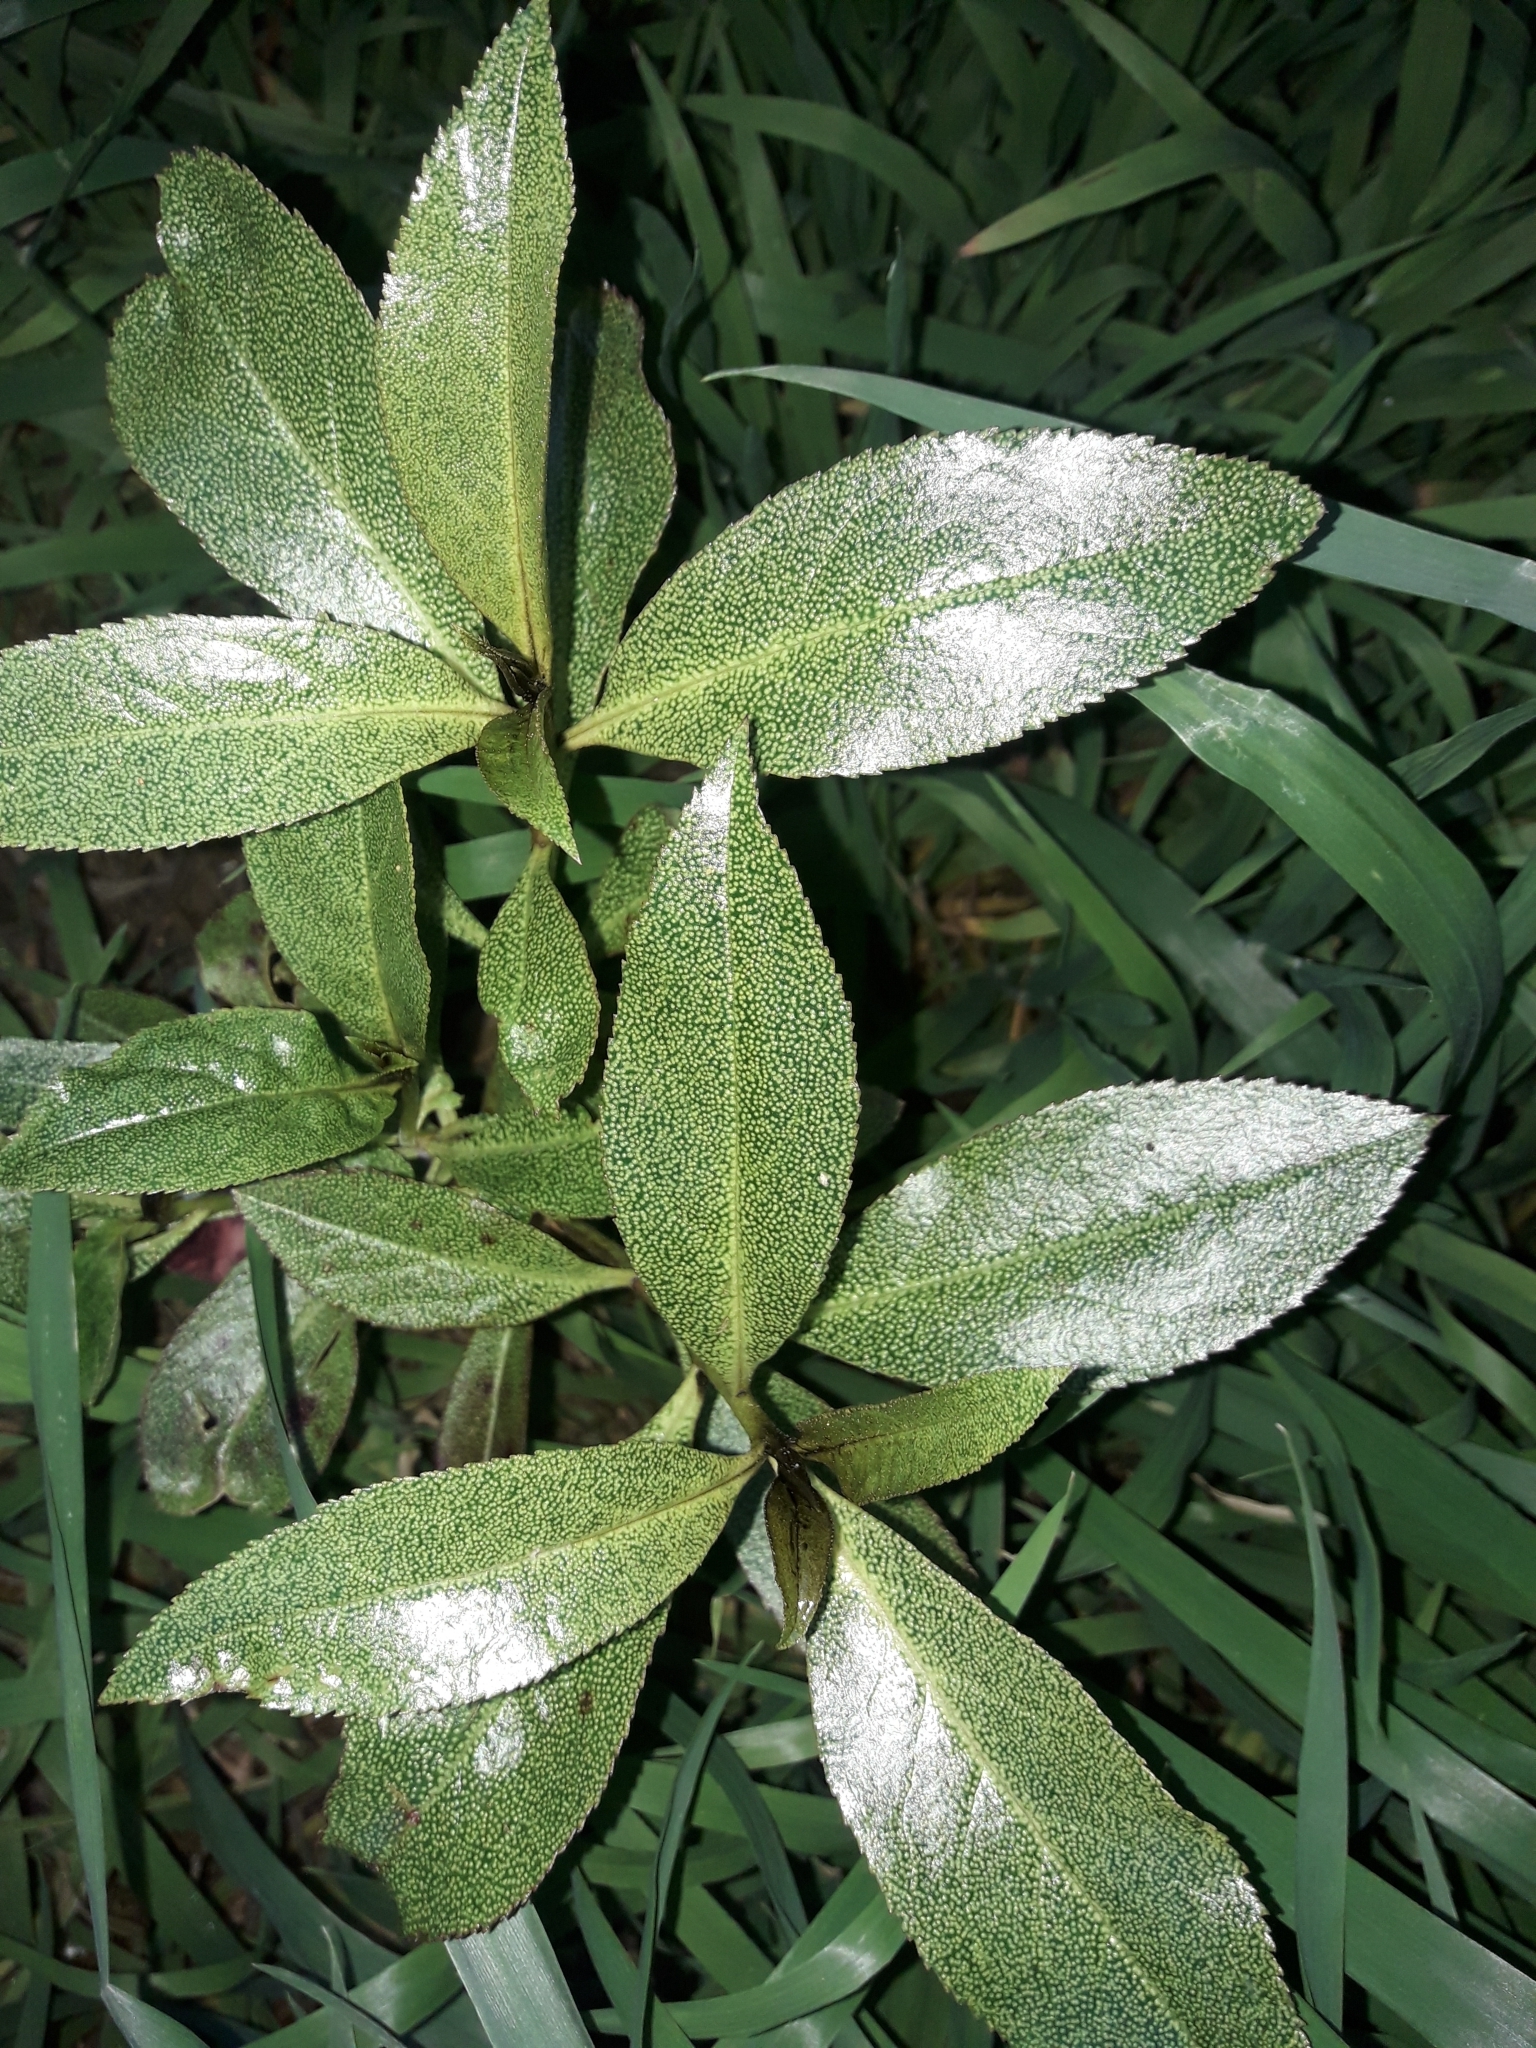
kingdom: Plantae
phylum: Tracheophyta
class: Magnoliopsida
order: Lamiales
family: Scrophulariaceae
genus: Myoporum
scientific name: Myoporum laetum
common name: Ngaio tree
